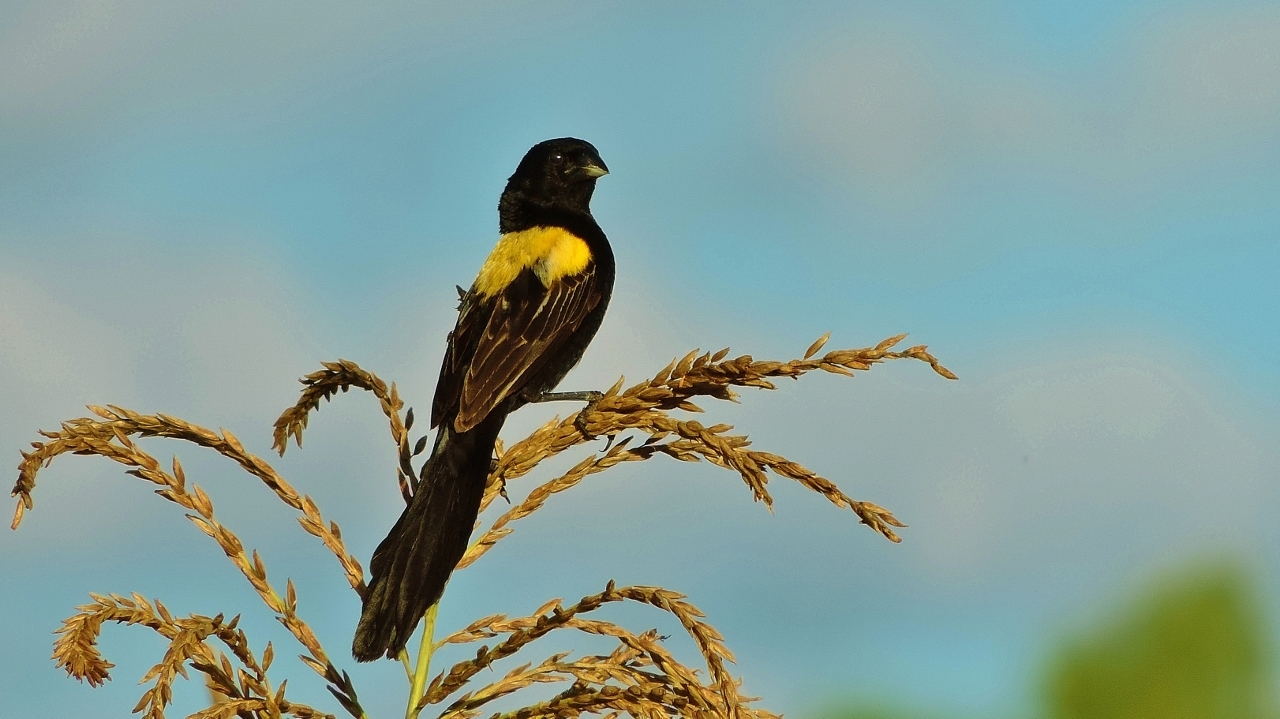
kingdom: Animalia
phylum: Chordata
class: Aves
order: Passeriformes
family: Ploceidae
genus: Euplectes
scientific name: Euplectes macroura
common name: Yellow-mantled widowbird
